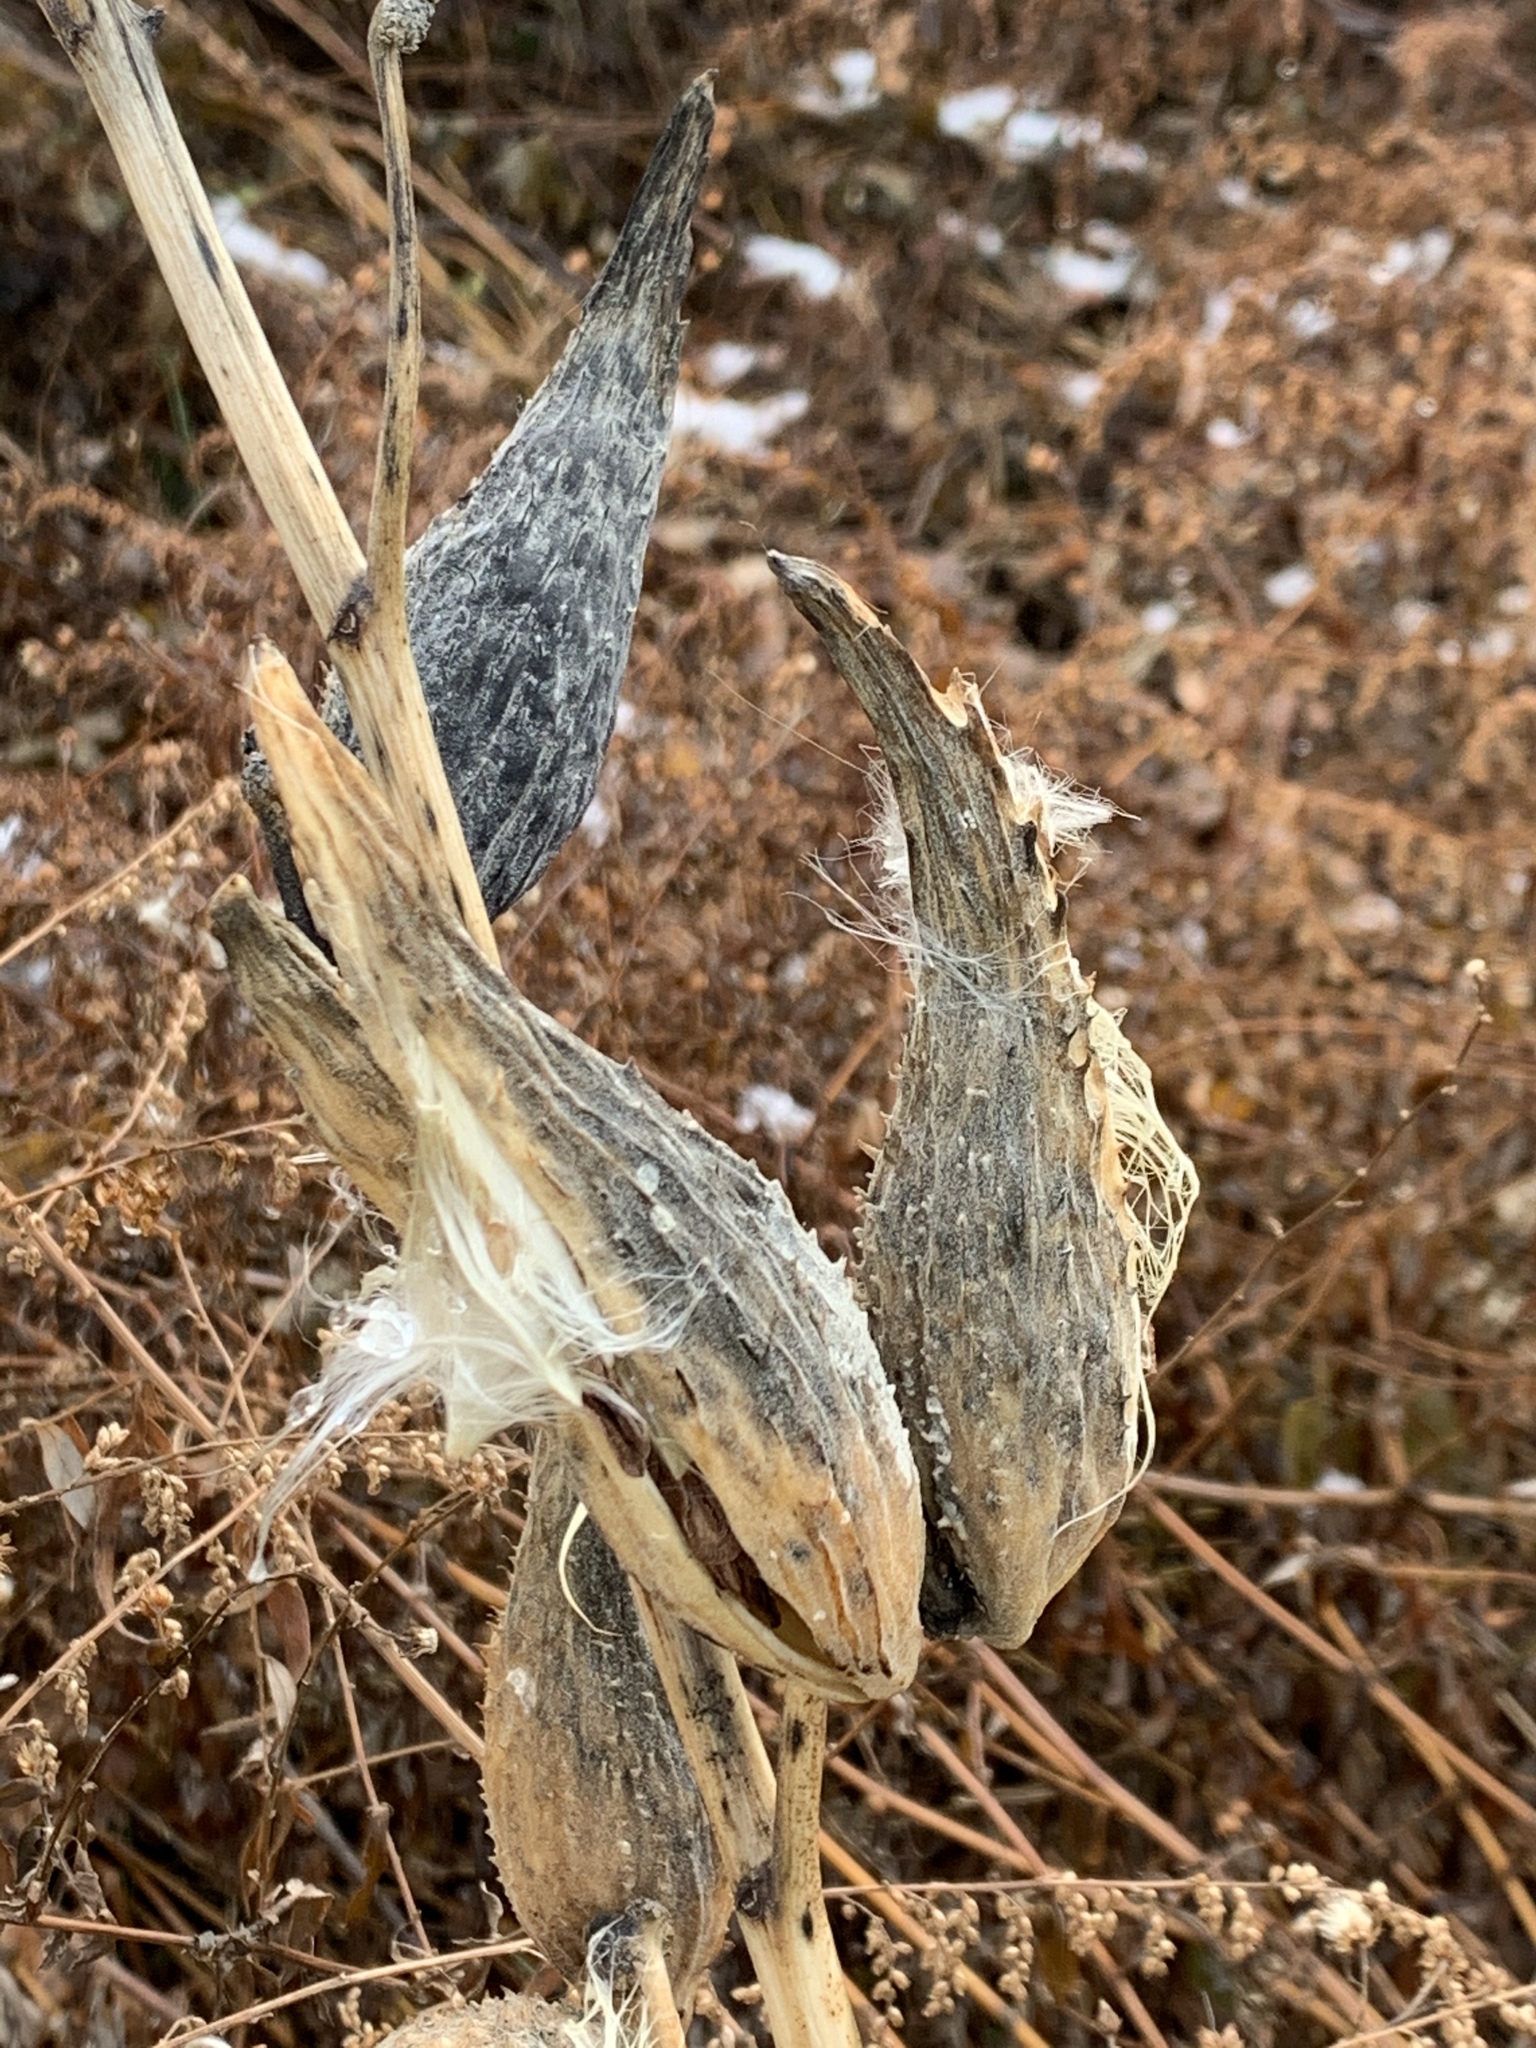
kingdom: Plantae
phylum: Tracheophyta
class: Magnoliopsida
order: Gentianales
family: Apocynaceae
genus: Asclepias
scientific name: Asclepias syriaca
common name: Common milkweed
